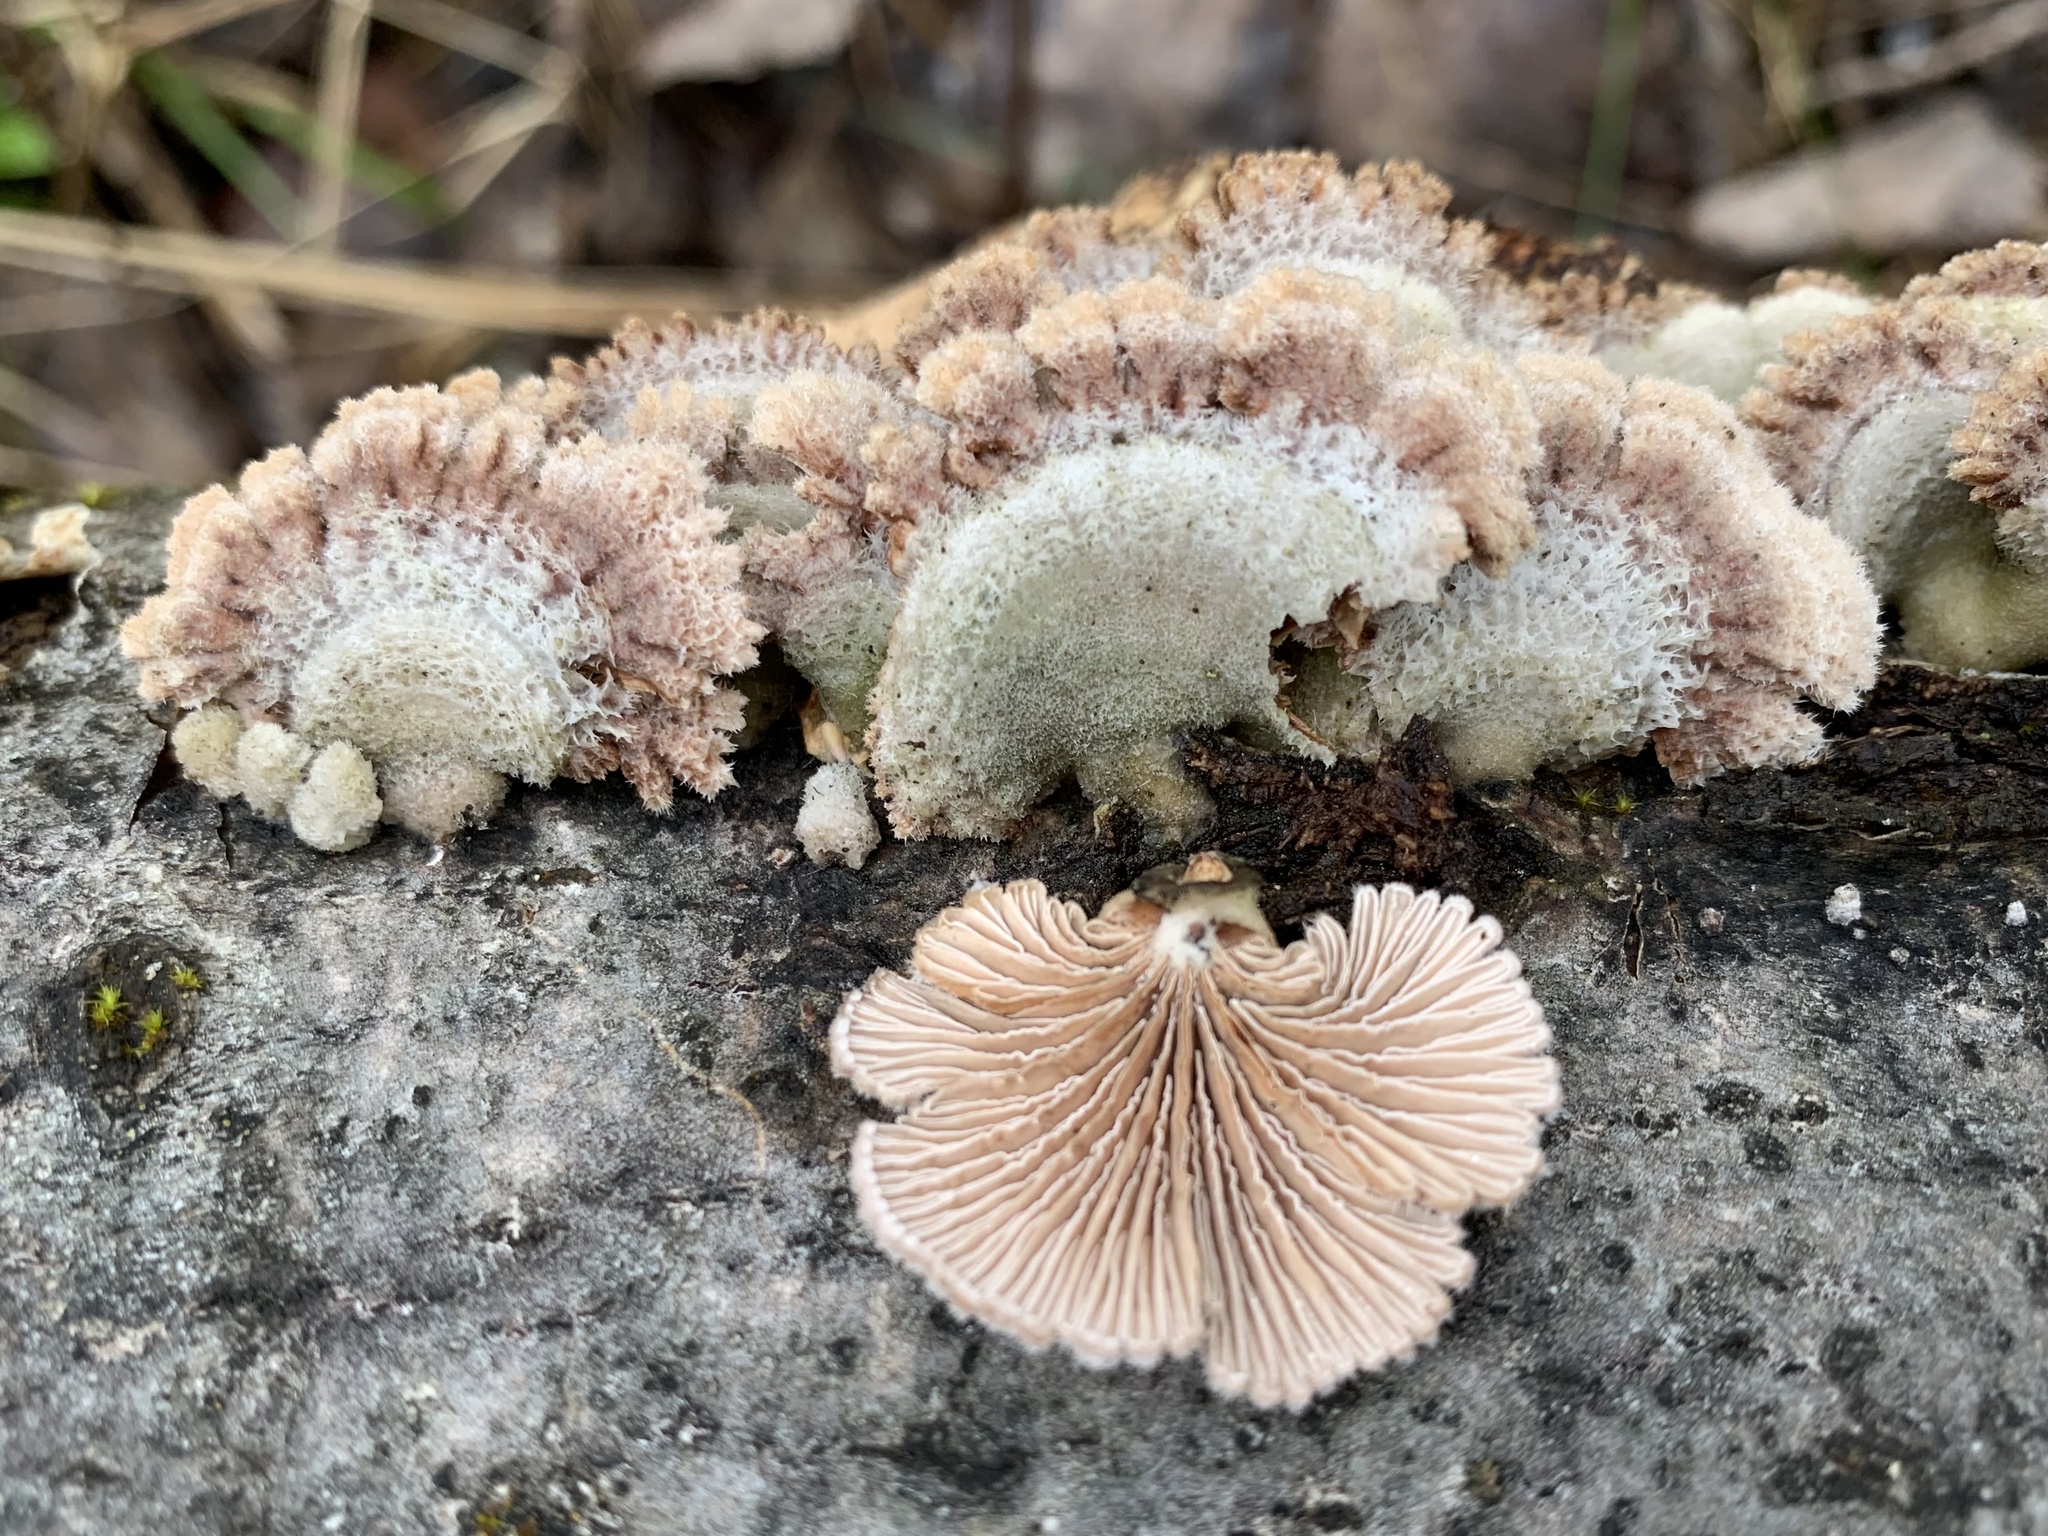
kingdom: Fungi
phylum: Basidiomycota
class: Agaricomycetes
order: Agaricales
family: Schizophyllaceae
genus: Schizophyllum
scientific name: Schizophyllum commune
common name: Common porecrust
